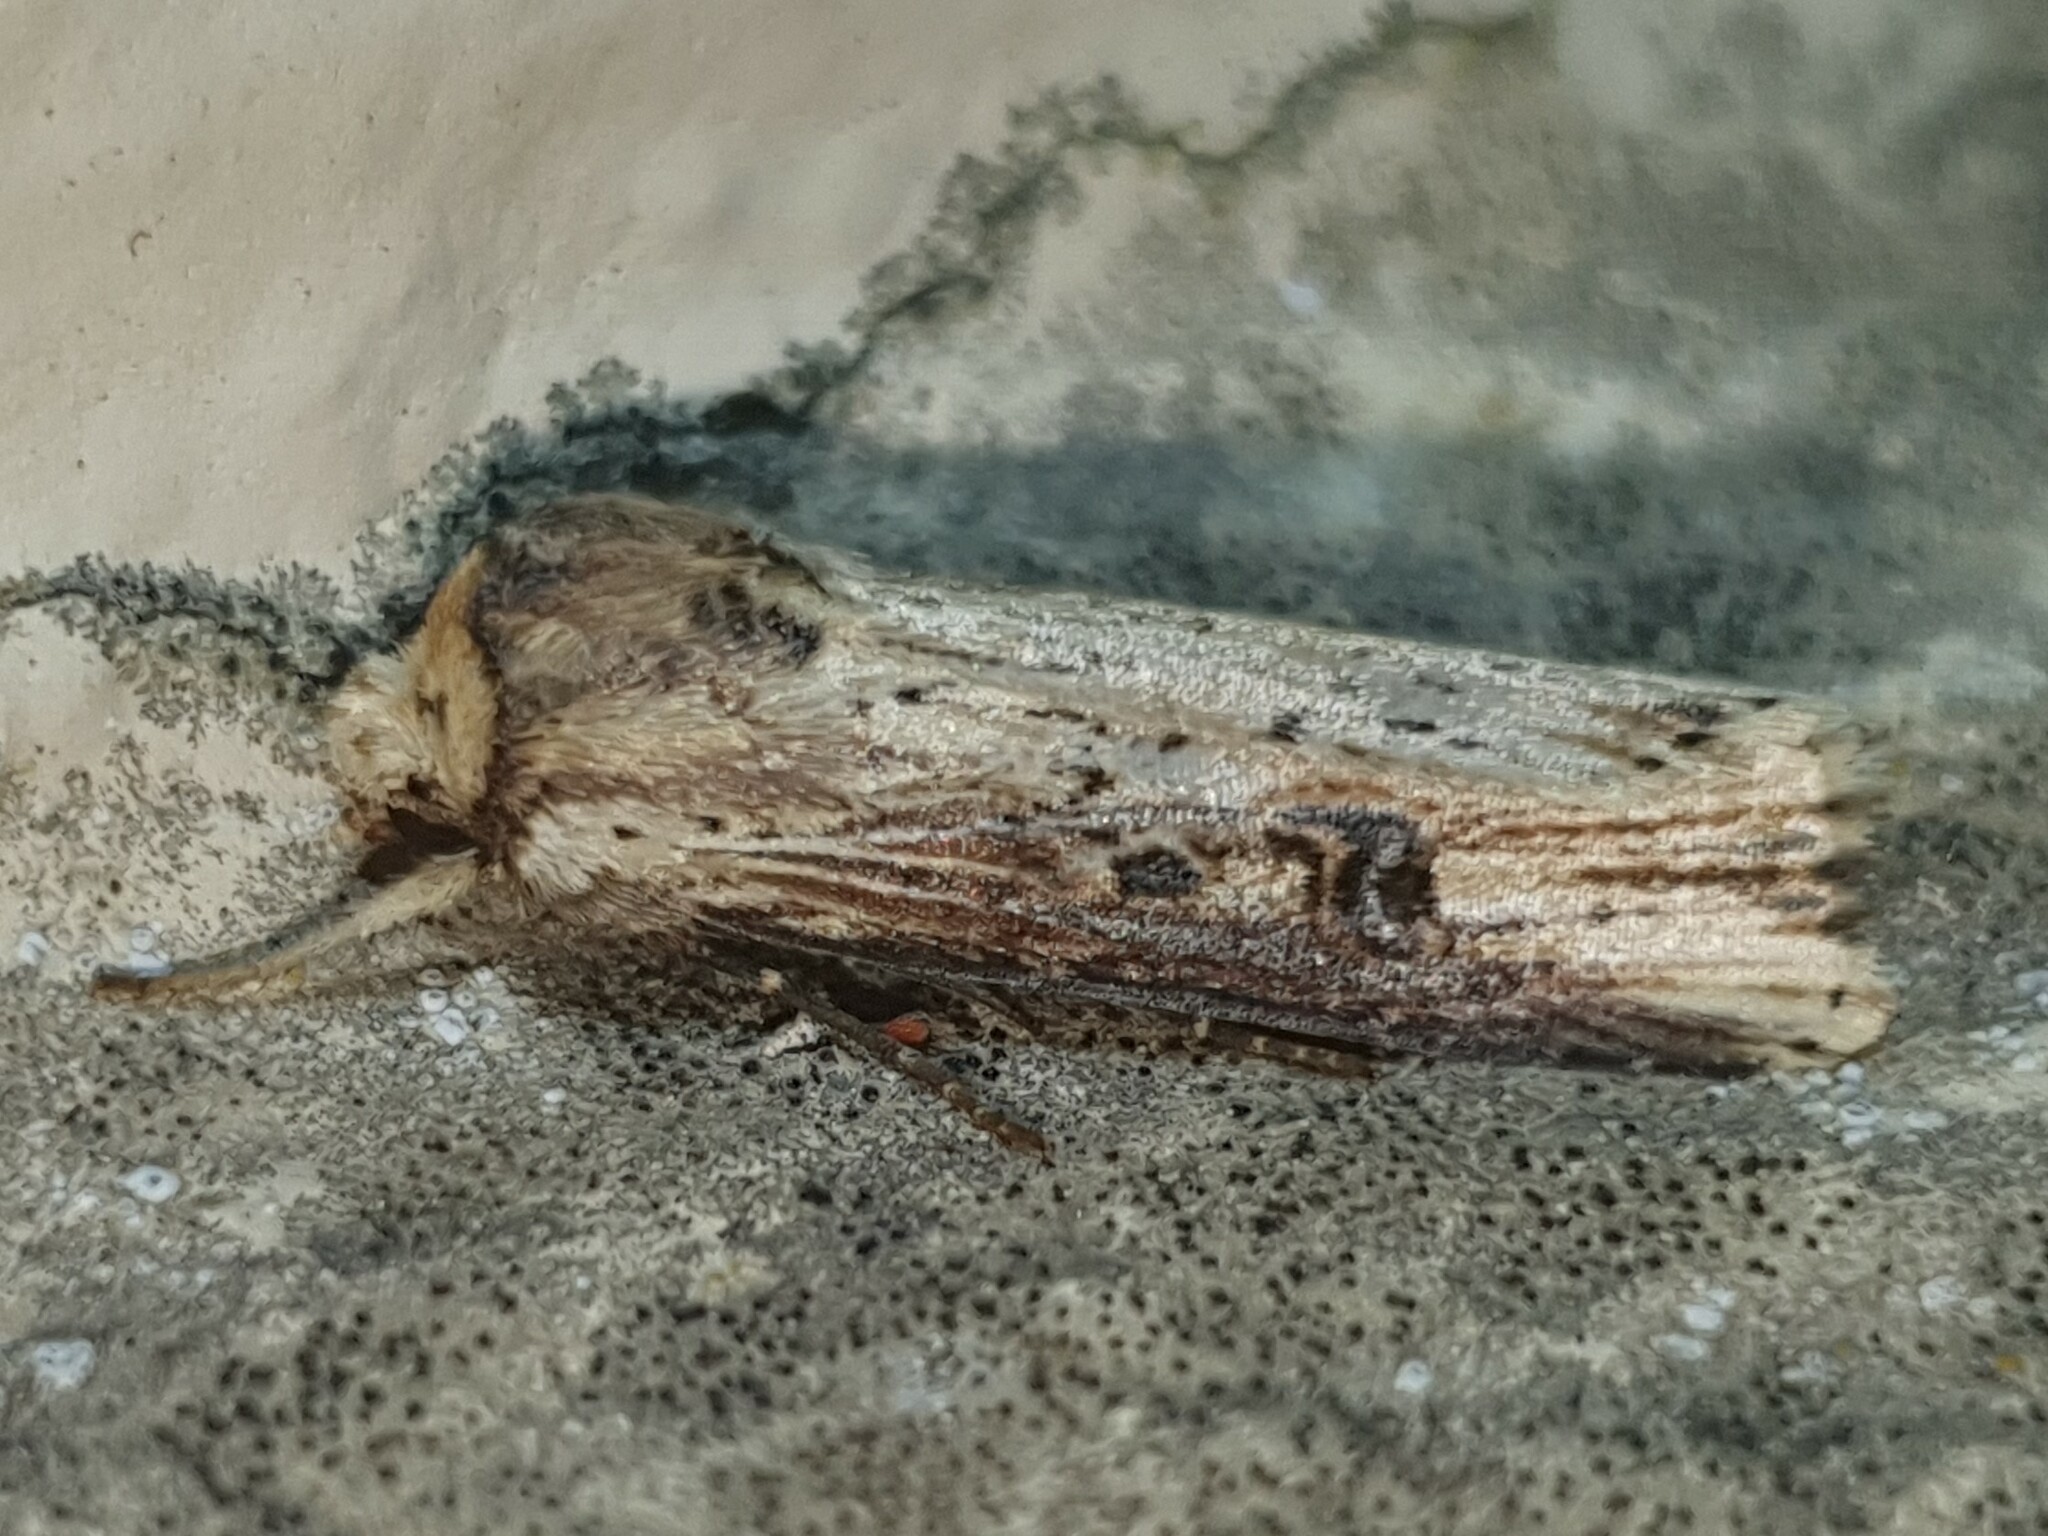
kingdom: Animalia
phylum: Arthropoda
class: Insecta
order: Lepidoptera
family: Noctuidae
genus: Axylia
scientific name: Axylia putris
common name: Flame
